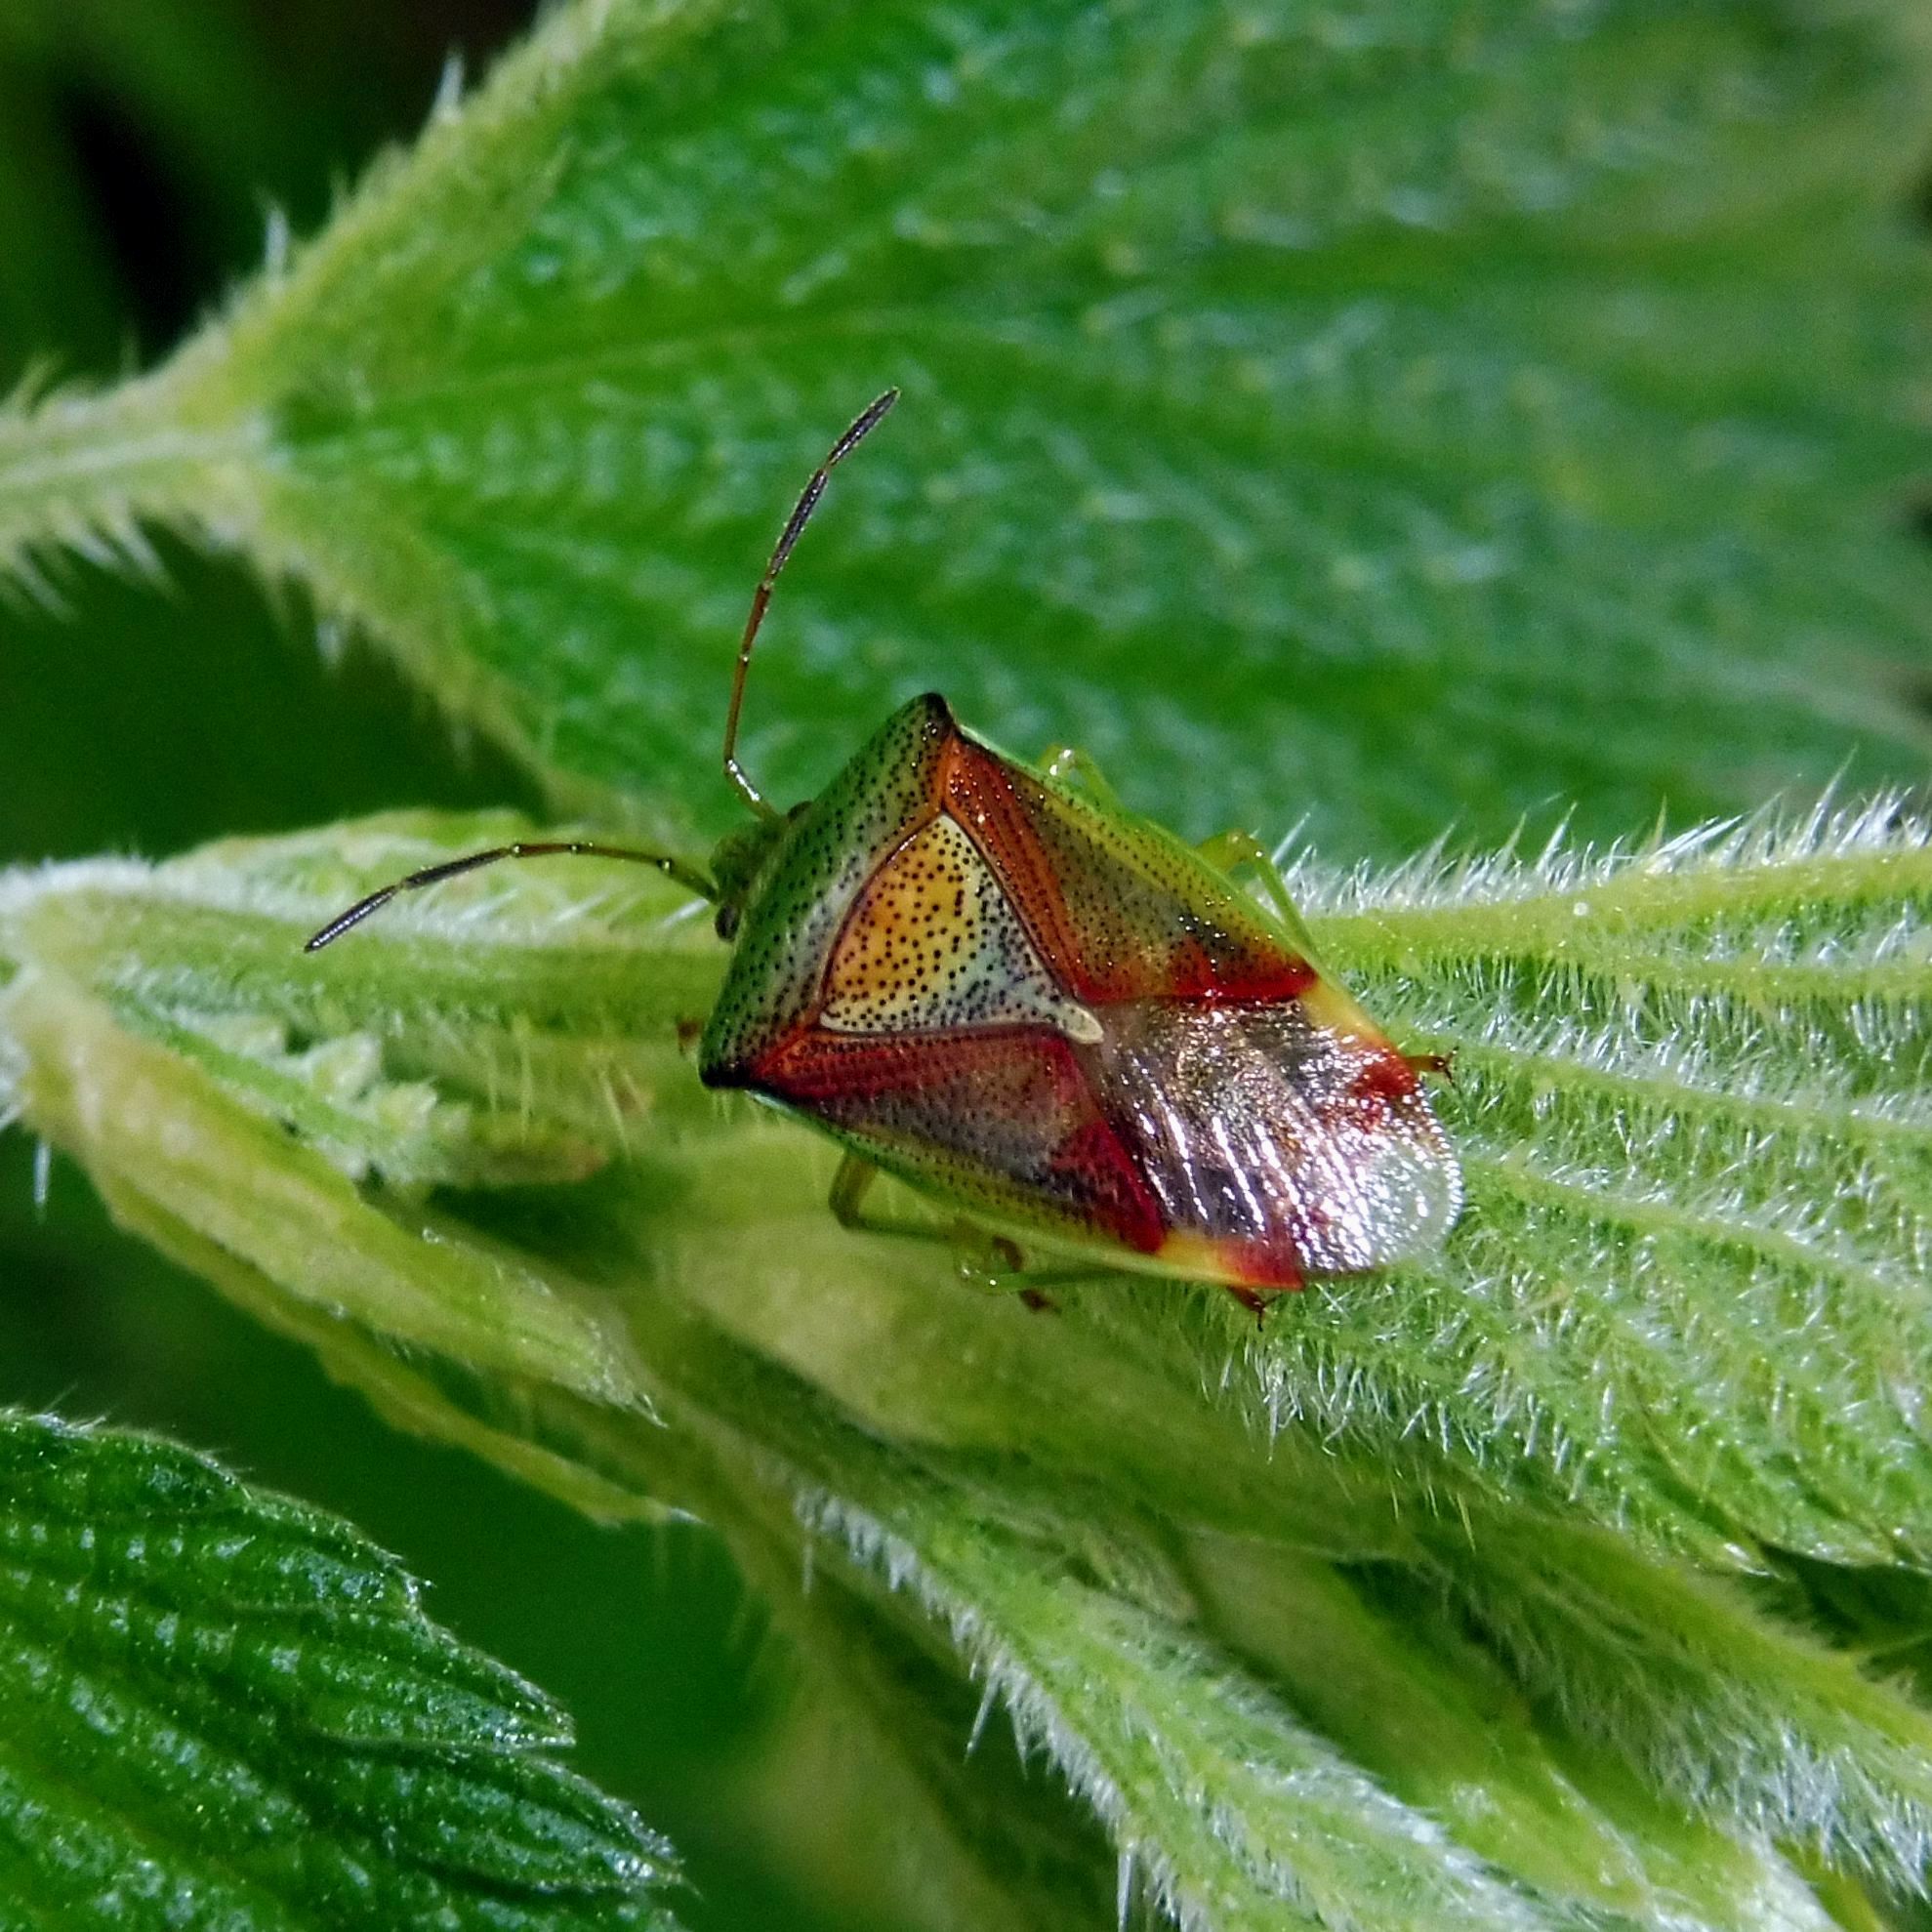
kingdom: Animalia
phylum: Arthropoda
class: Insecta
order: Hemiptera
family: Acanthosomatidae
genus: Elasmostethus
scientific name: Elasmostethus interstinctus
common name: Birch shieldbug
